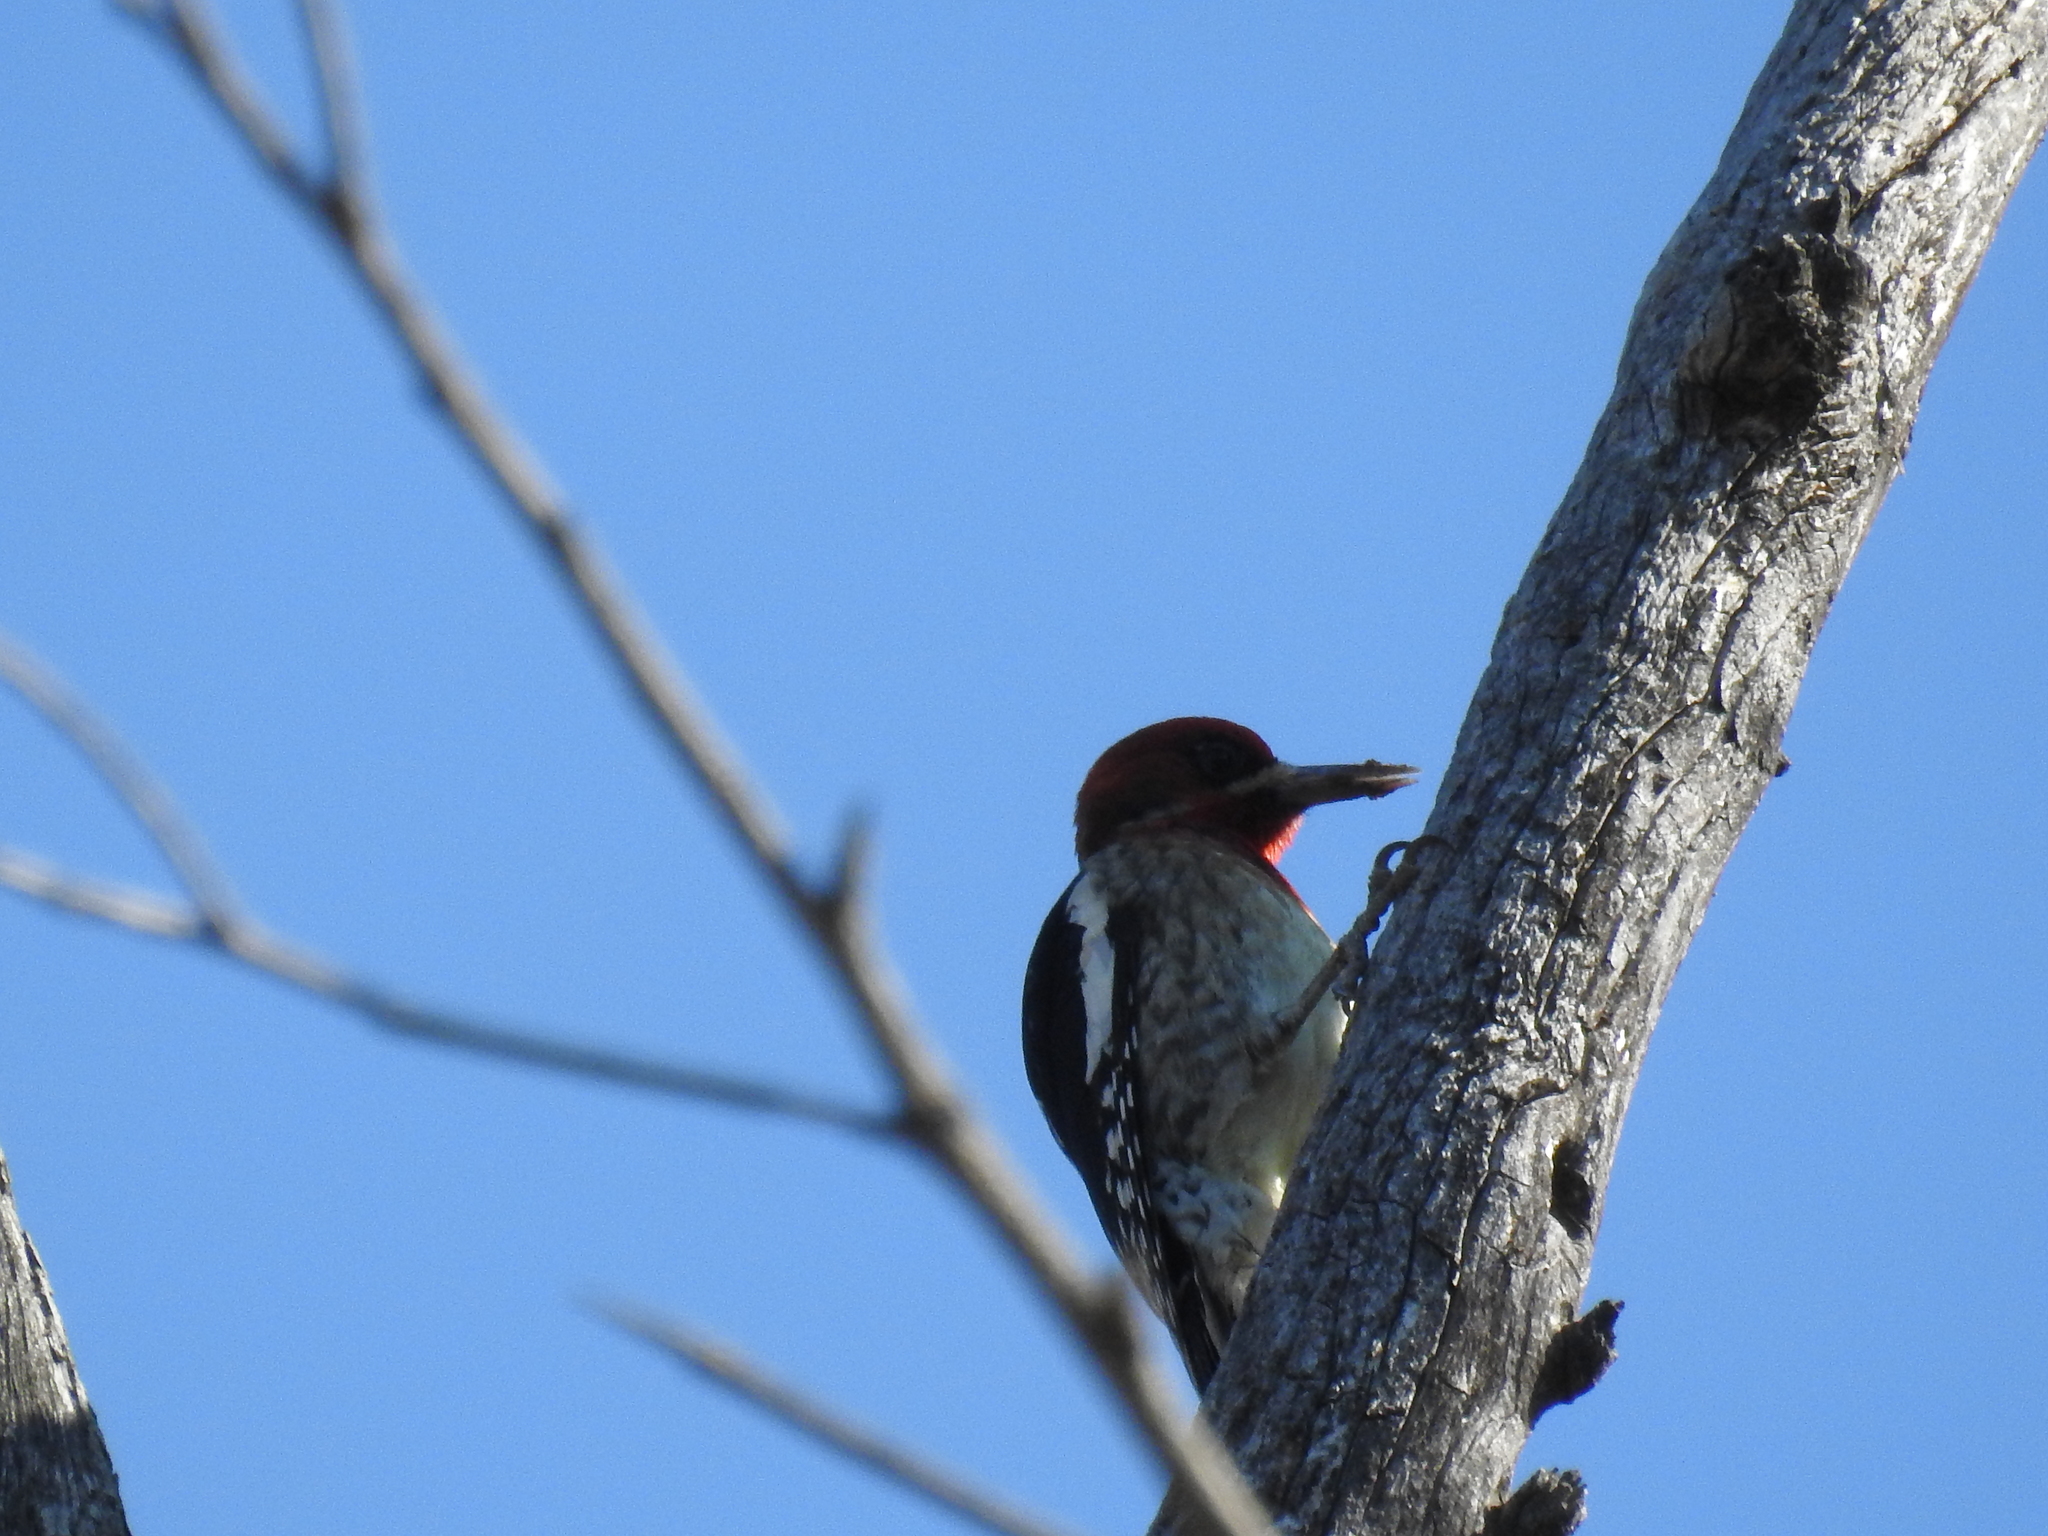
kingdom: Animalia
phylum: Chordata
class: Aves
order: Piciformes
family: Picidae
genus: Sphyrapicus
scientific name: Sphyrapicus ruber
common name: Red-breasted sapsucker
